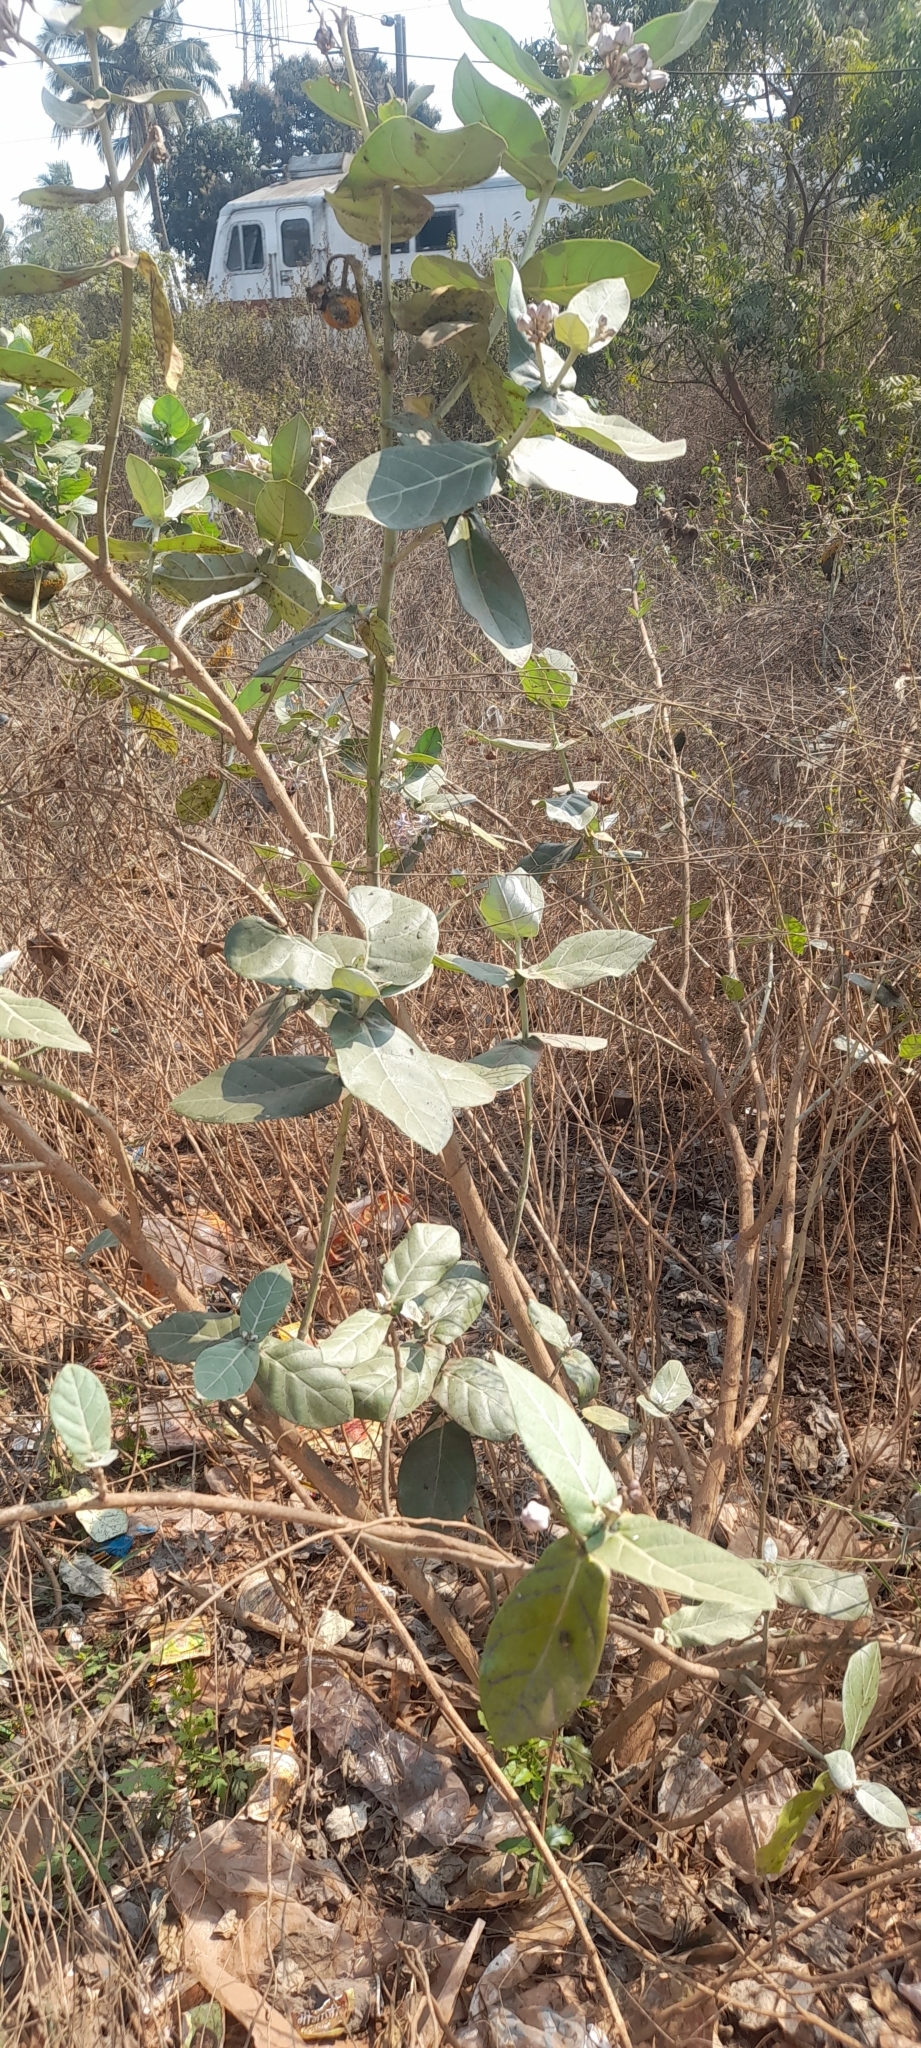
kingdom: Plantae
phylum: Tracheophyta
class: Magnoliopsida
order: Gentianales
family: Apocynaceae
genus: Calotropis
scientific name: Calotropis gigantea
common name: Crown flower
